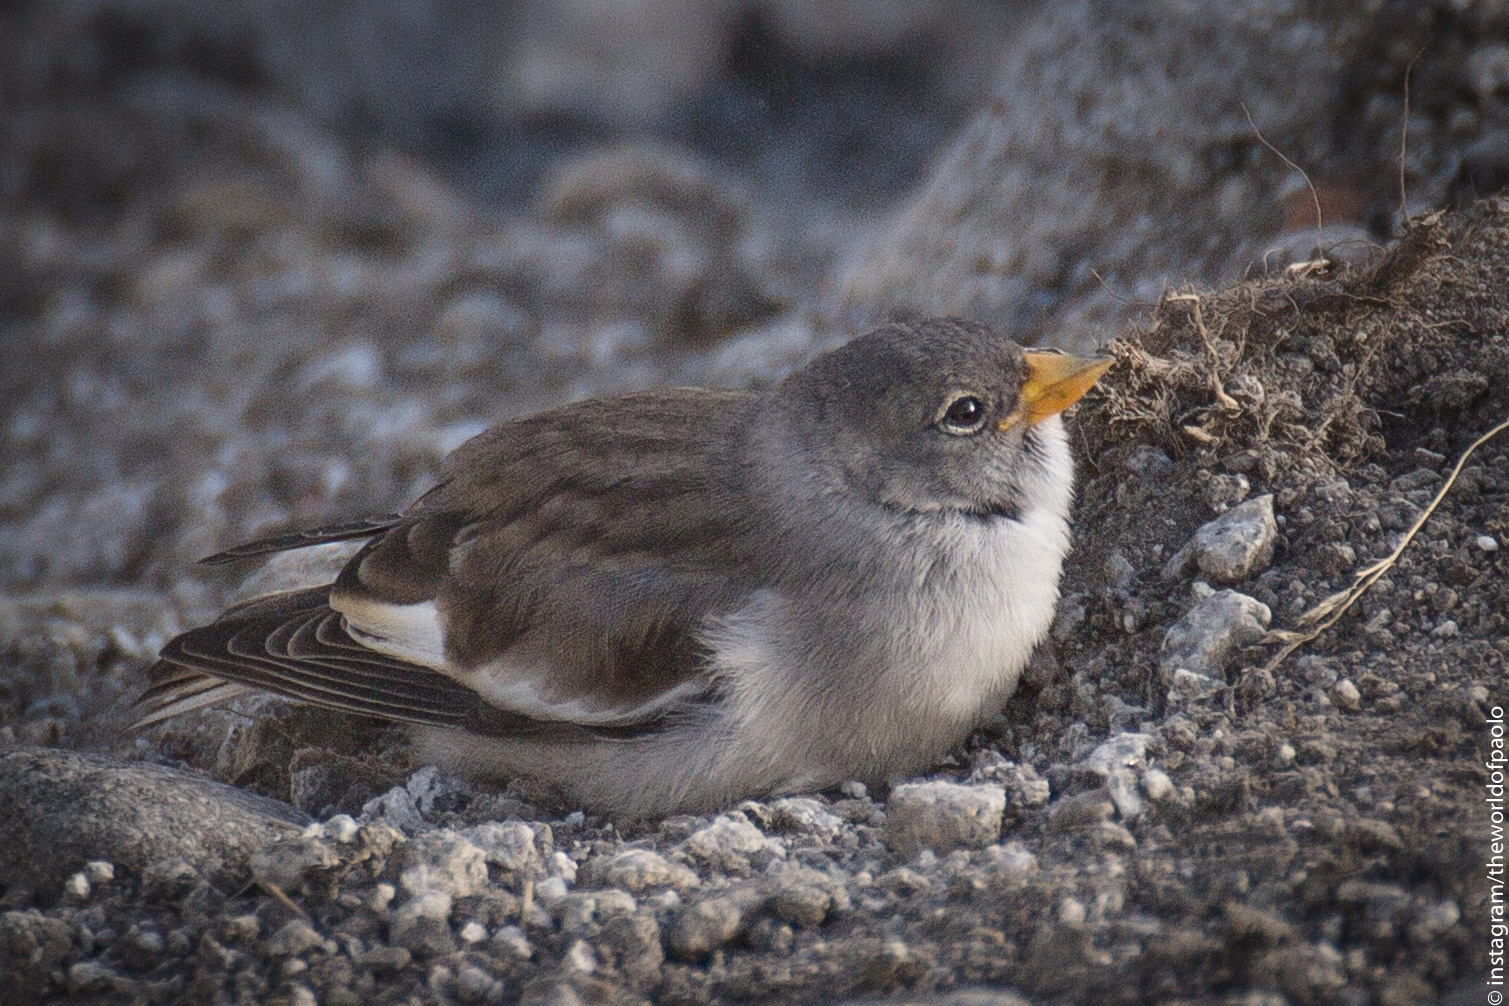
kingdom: Animalia
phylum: Chordata
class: Aves
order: Passeriformes
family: Passeridae
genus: Montifringilla
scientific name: Montifringilla nivalis
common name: White-winged snowfinch
